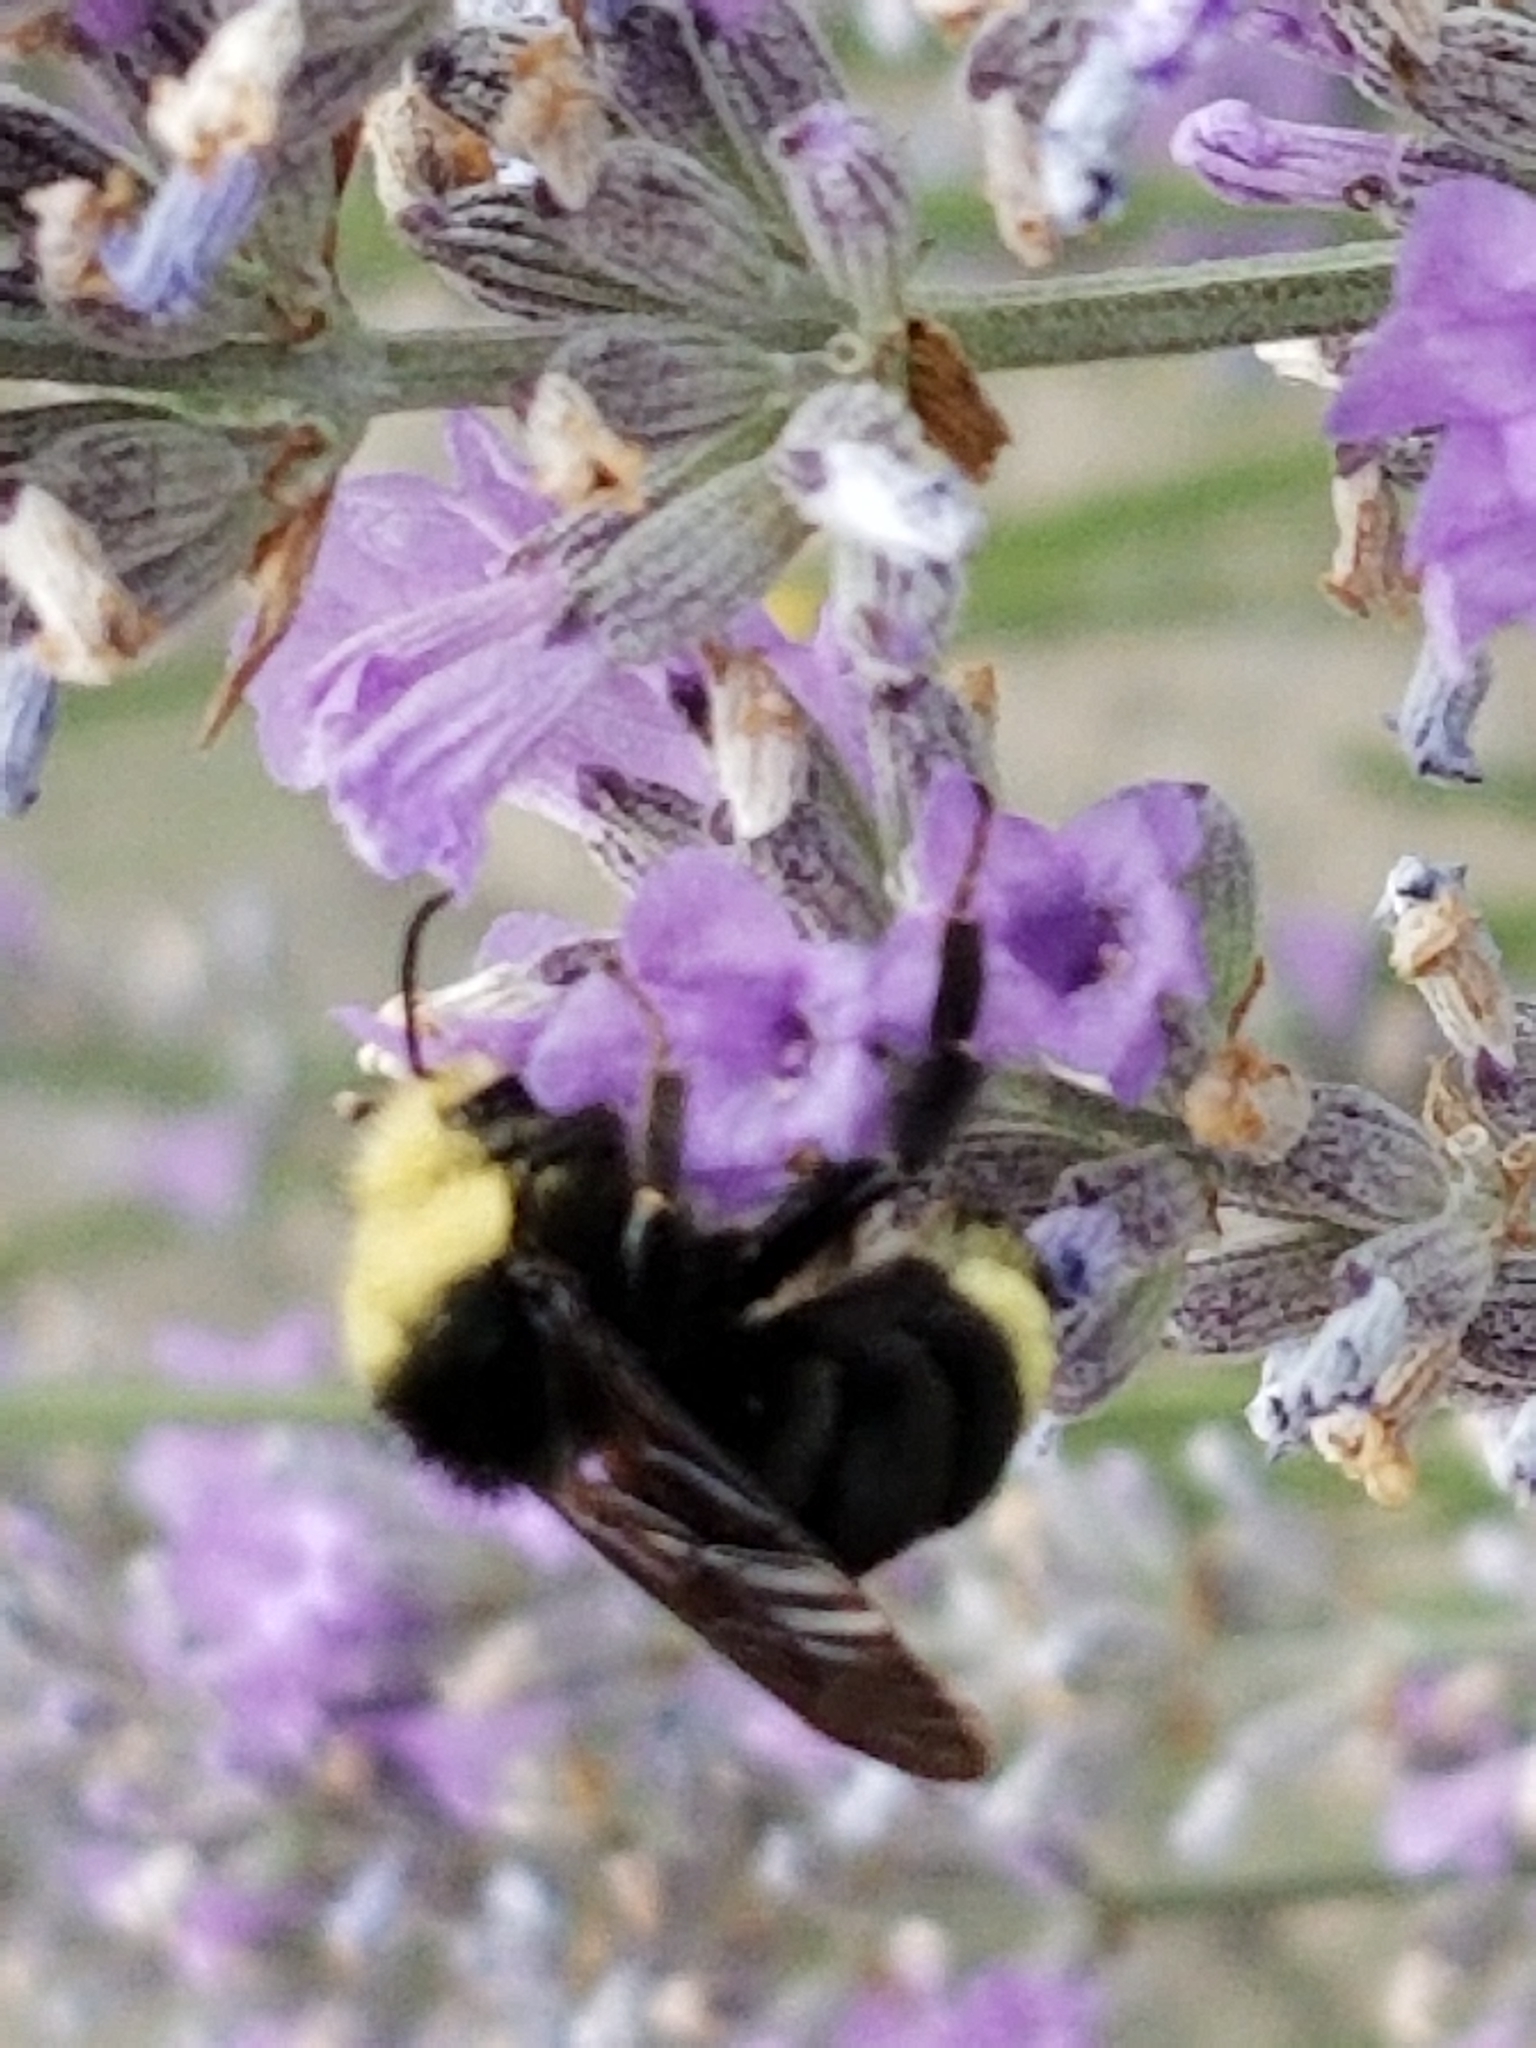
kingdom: Animalia
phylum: Arthropoda
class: Insecta
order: Hymenoptera
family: Apidae
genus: Bombus
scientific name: Bombus vosnesenskii
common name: Vosnesensky bumble bee
